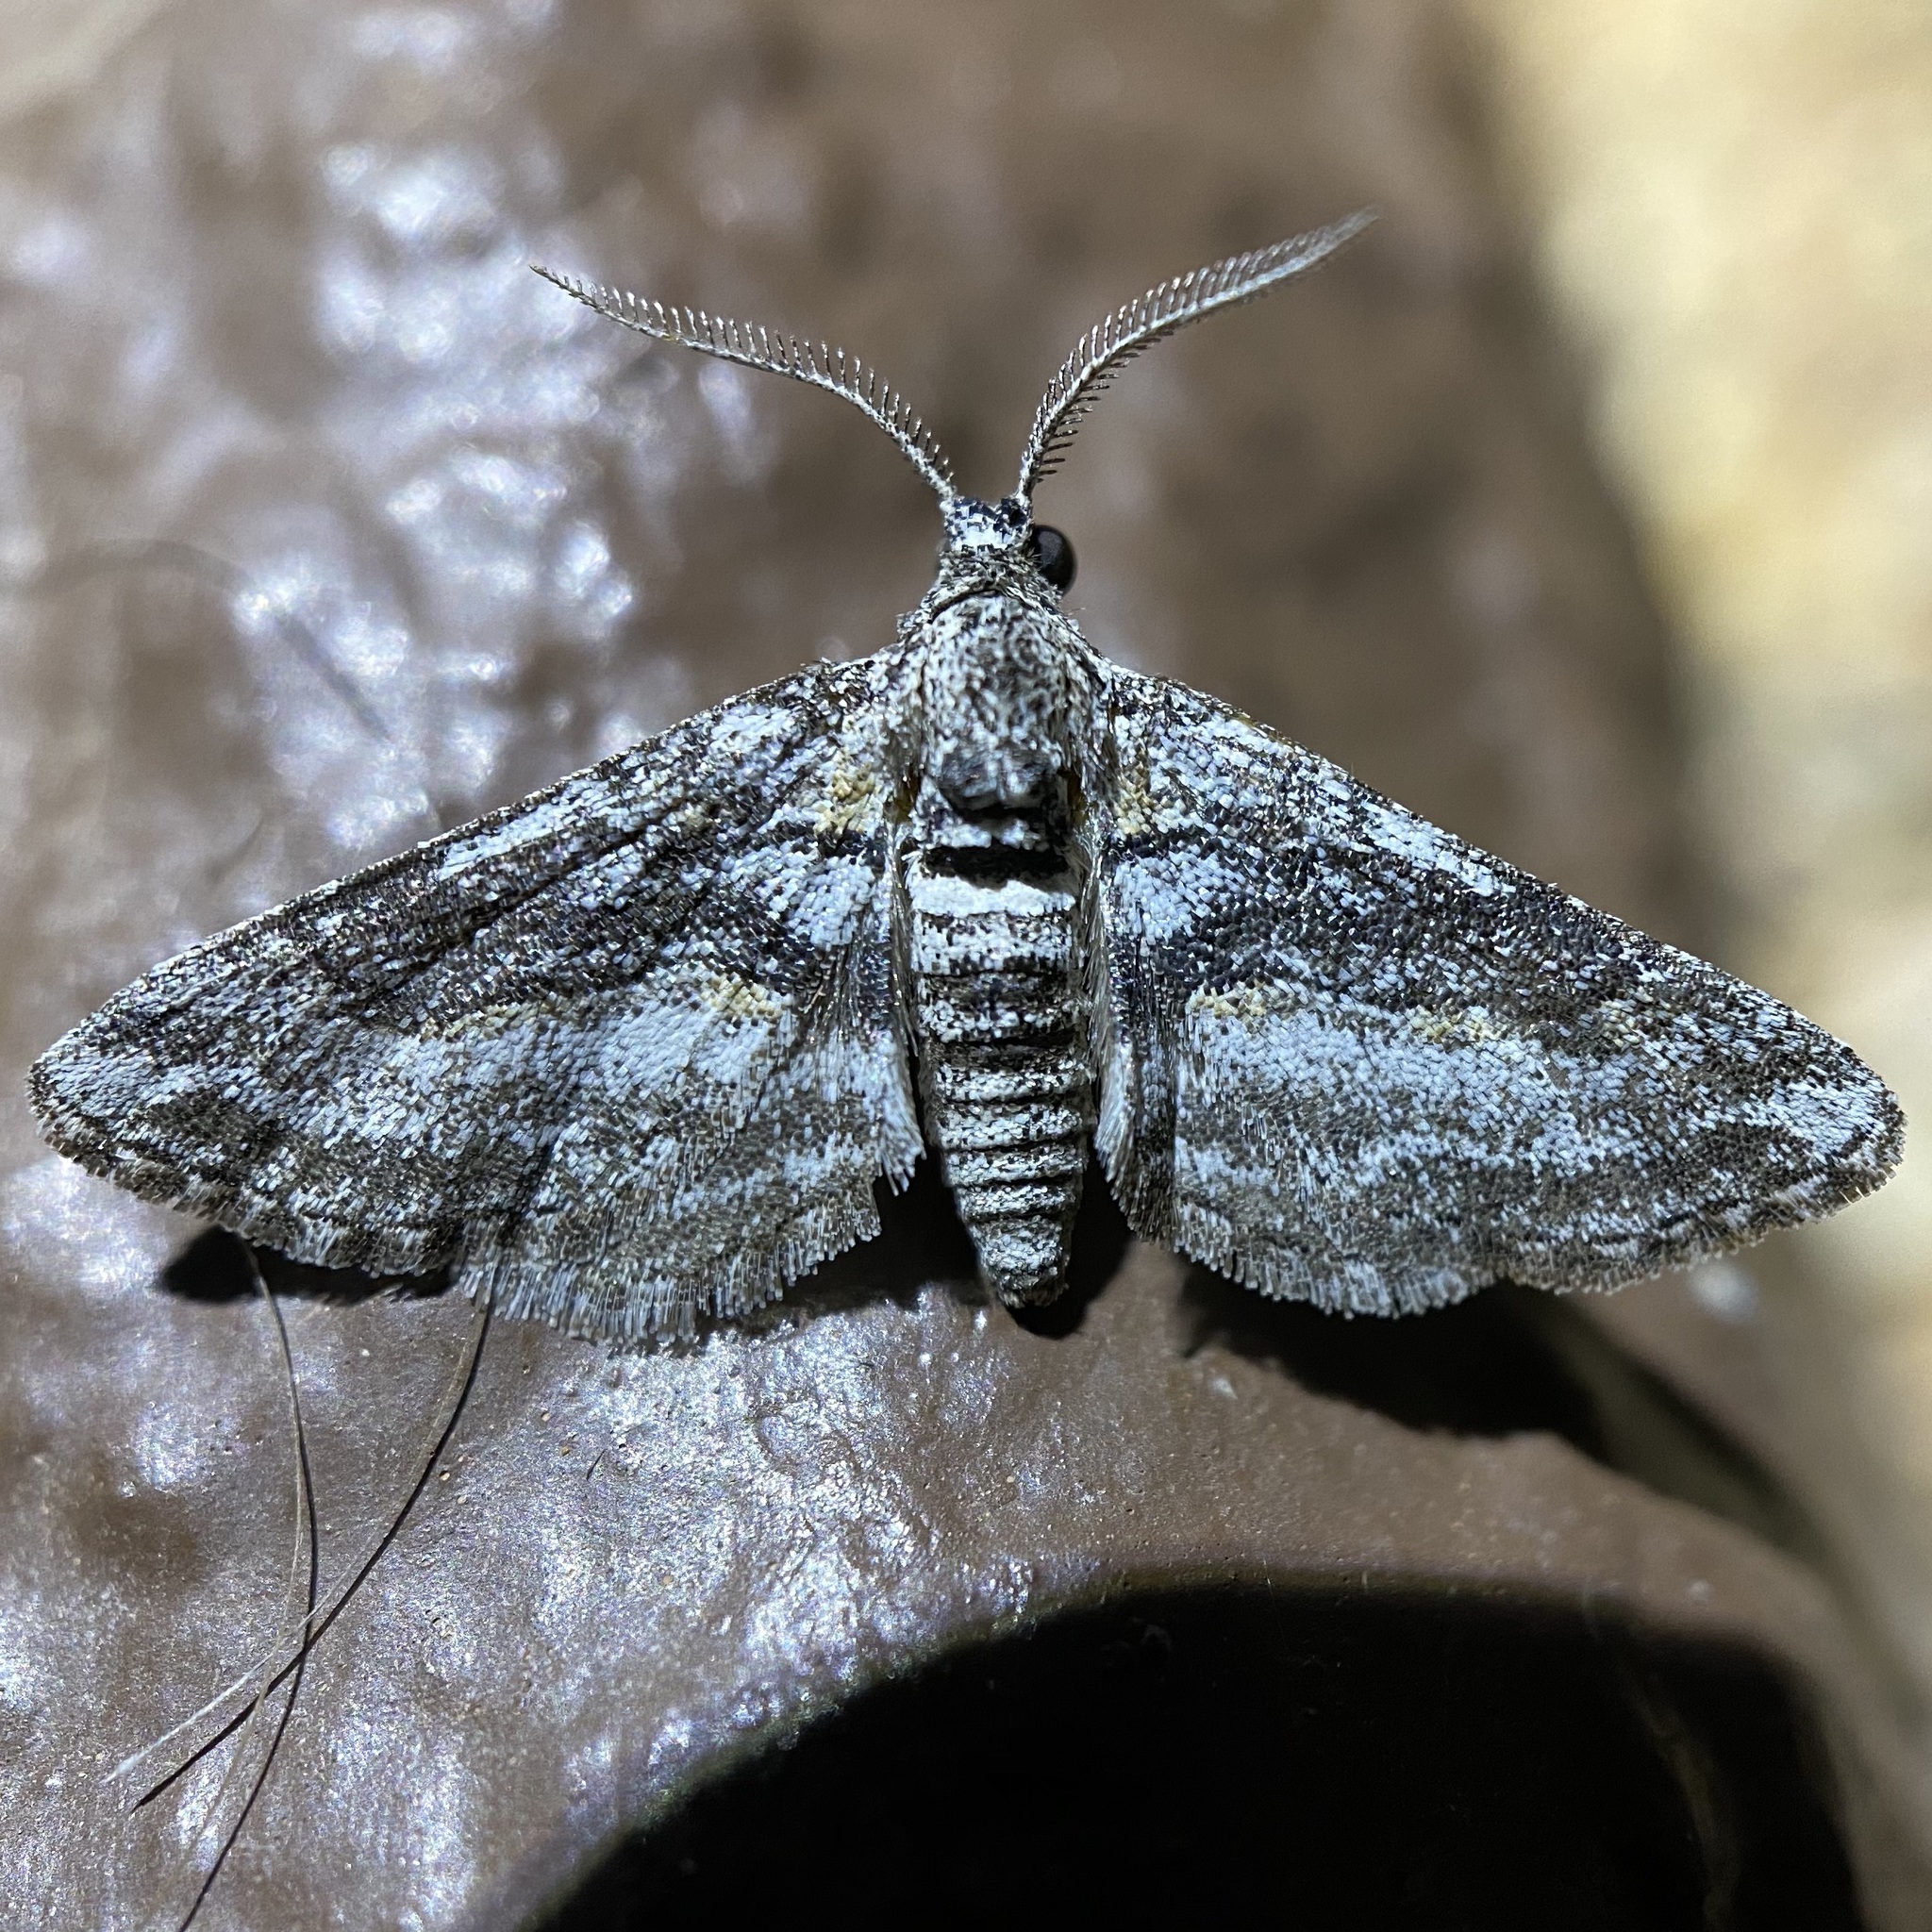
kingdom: Animalia
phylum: Arthropoda
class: Insecta
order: Lepidoptera
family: Geometridae
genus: Eubarnesia
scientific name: Eubarnesia ritaria
